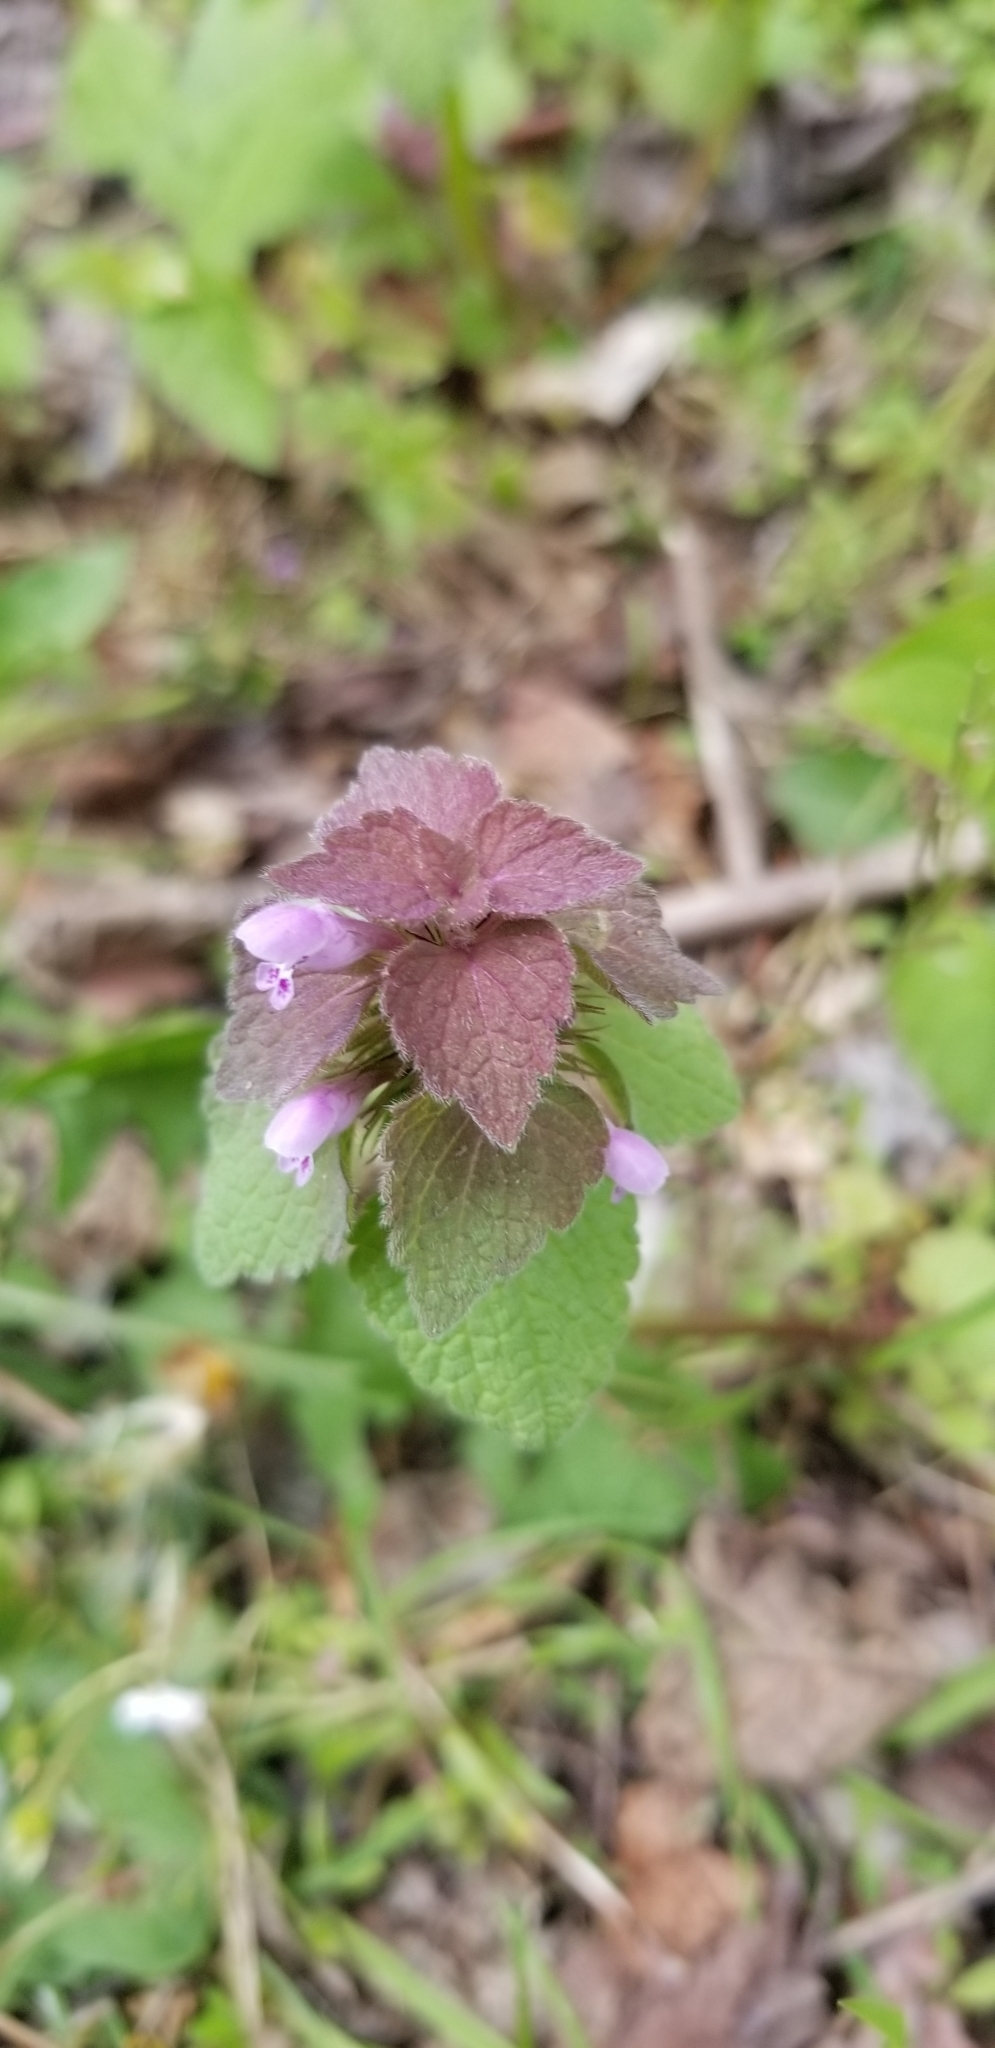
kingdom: Plantae
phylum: Tracheophyta
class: Magnoliopsida
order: Lamiales
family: Lamiaceae
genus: Lamium
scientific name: Lamium purpureum
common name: Red dead-nettle
